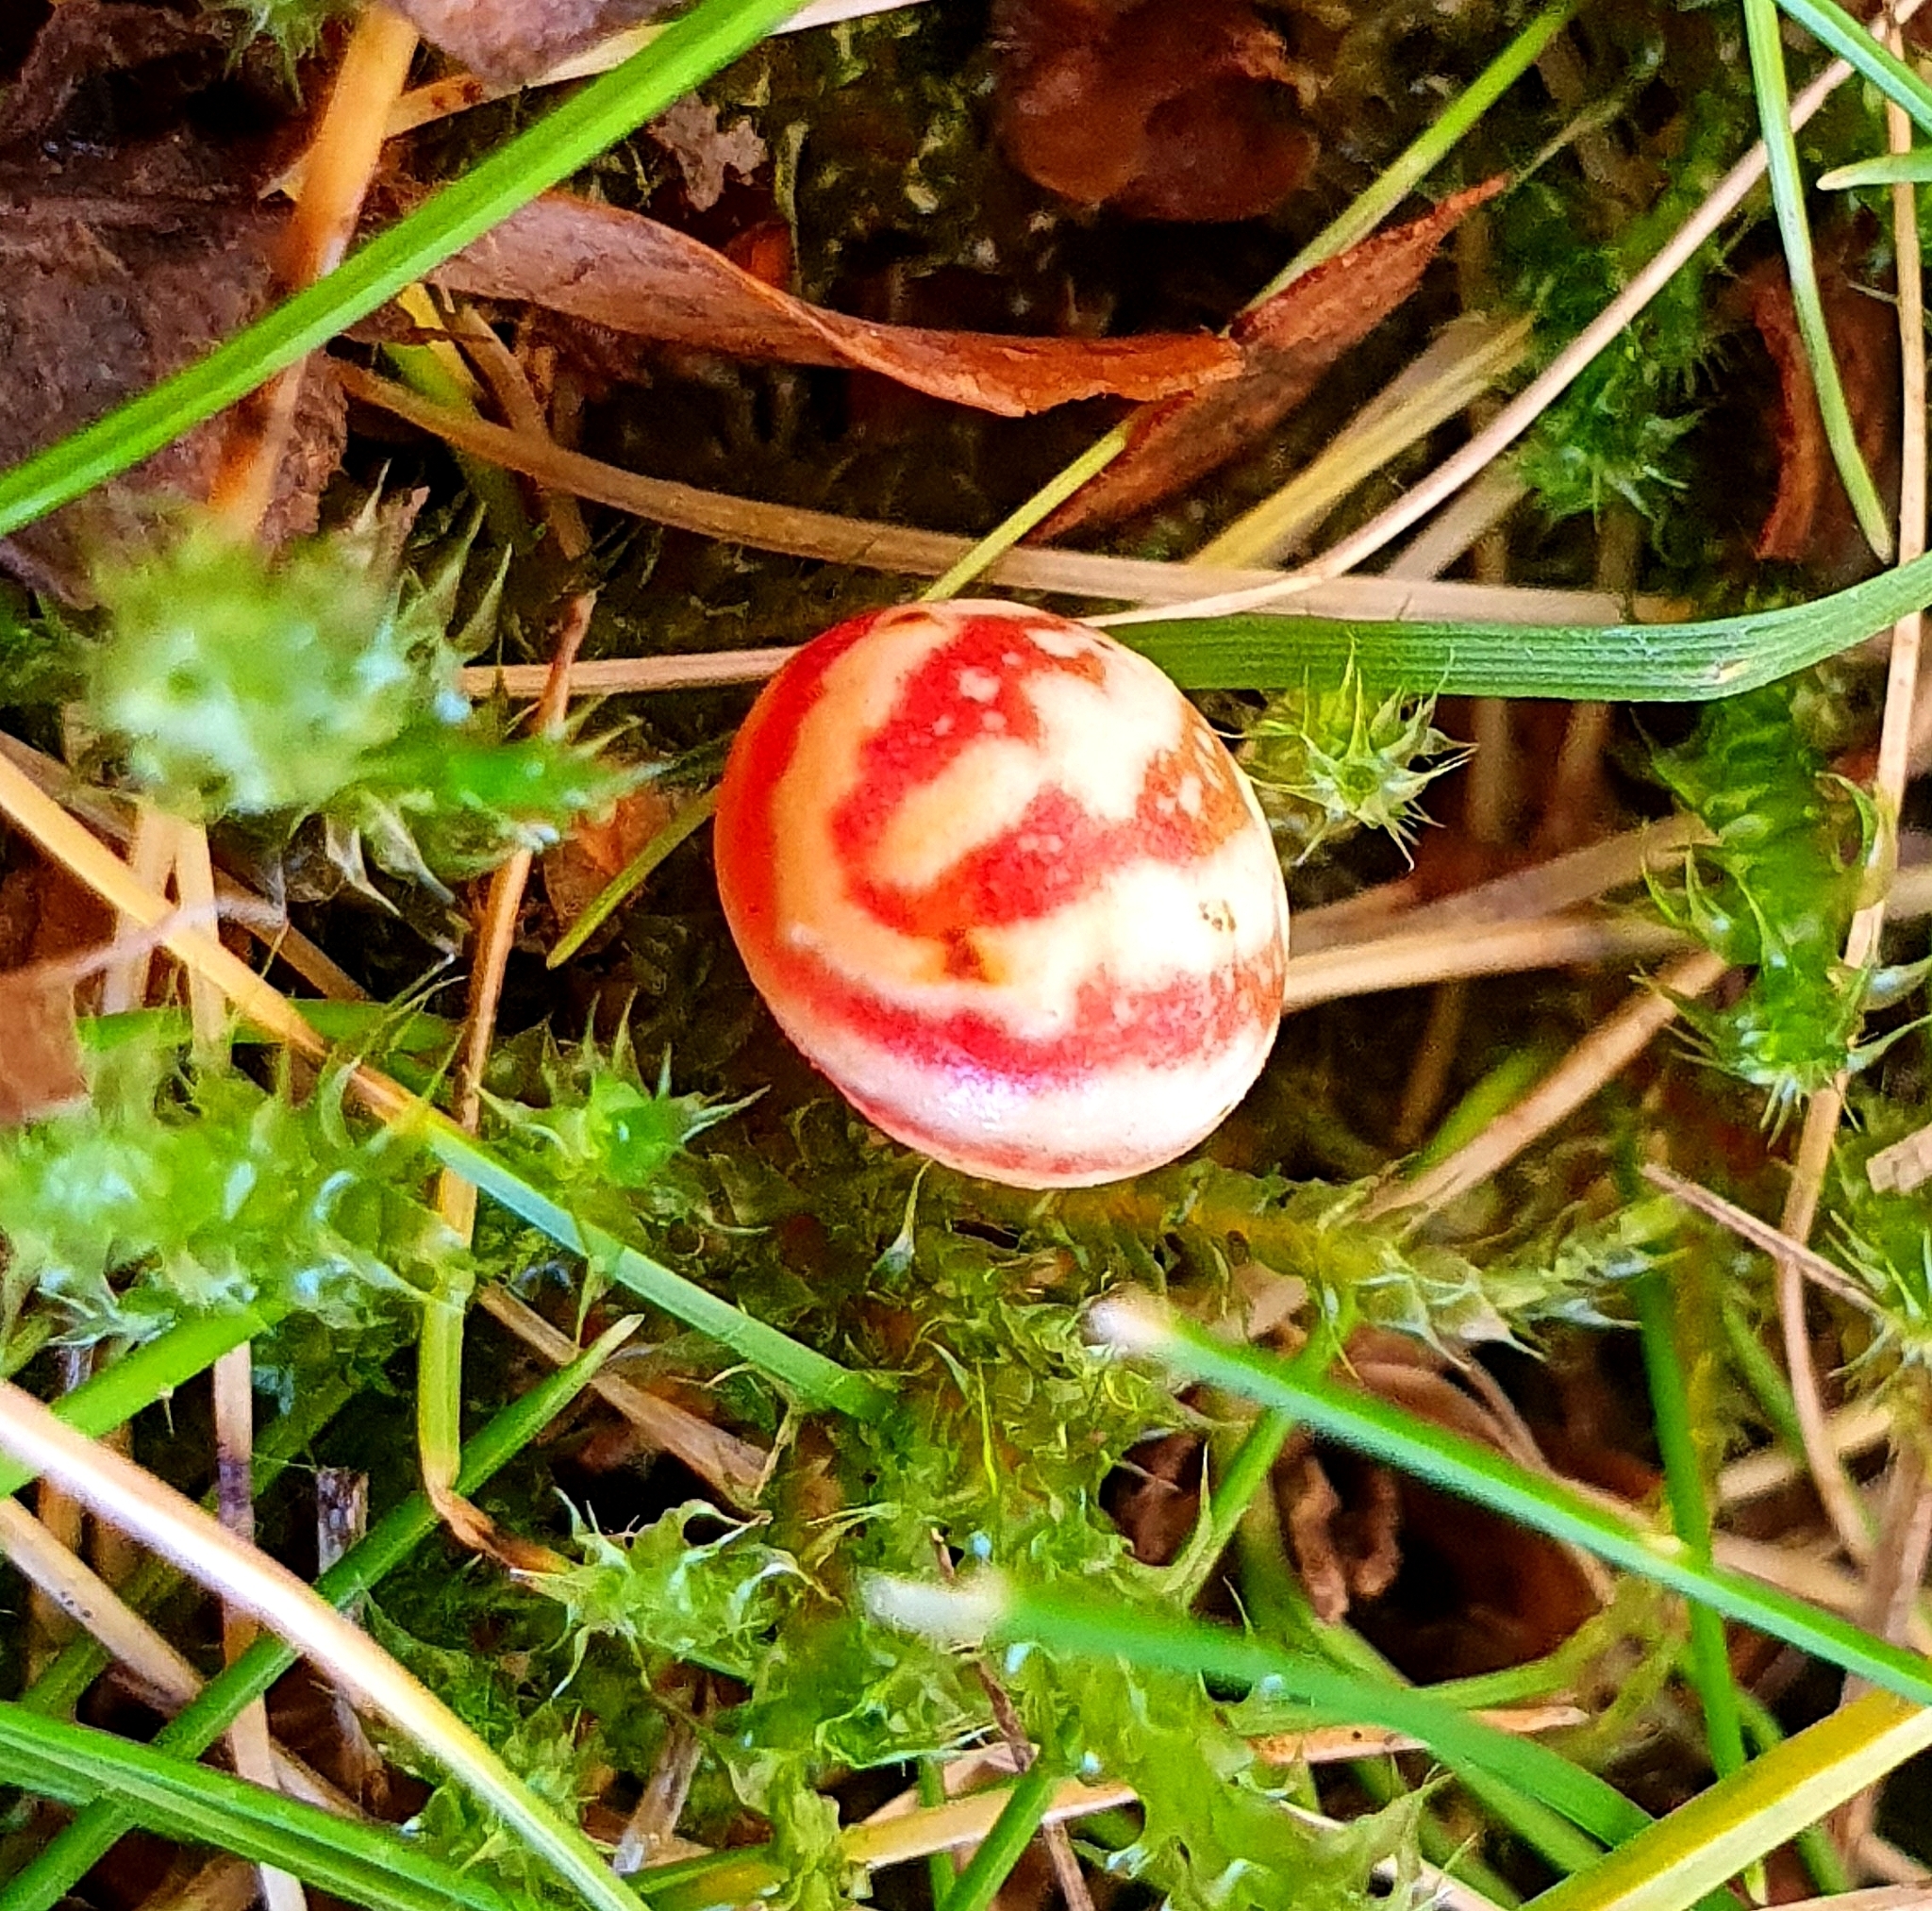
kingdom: Animalia
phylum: Arthropoda
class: Insecta
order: Hymenoptera
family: Cynipidae
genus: Cynips
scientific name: Cynips longiventris
